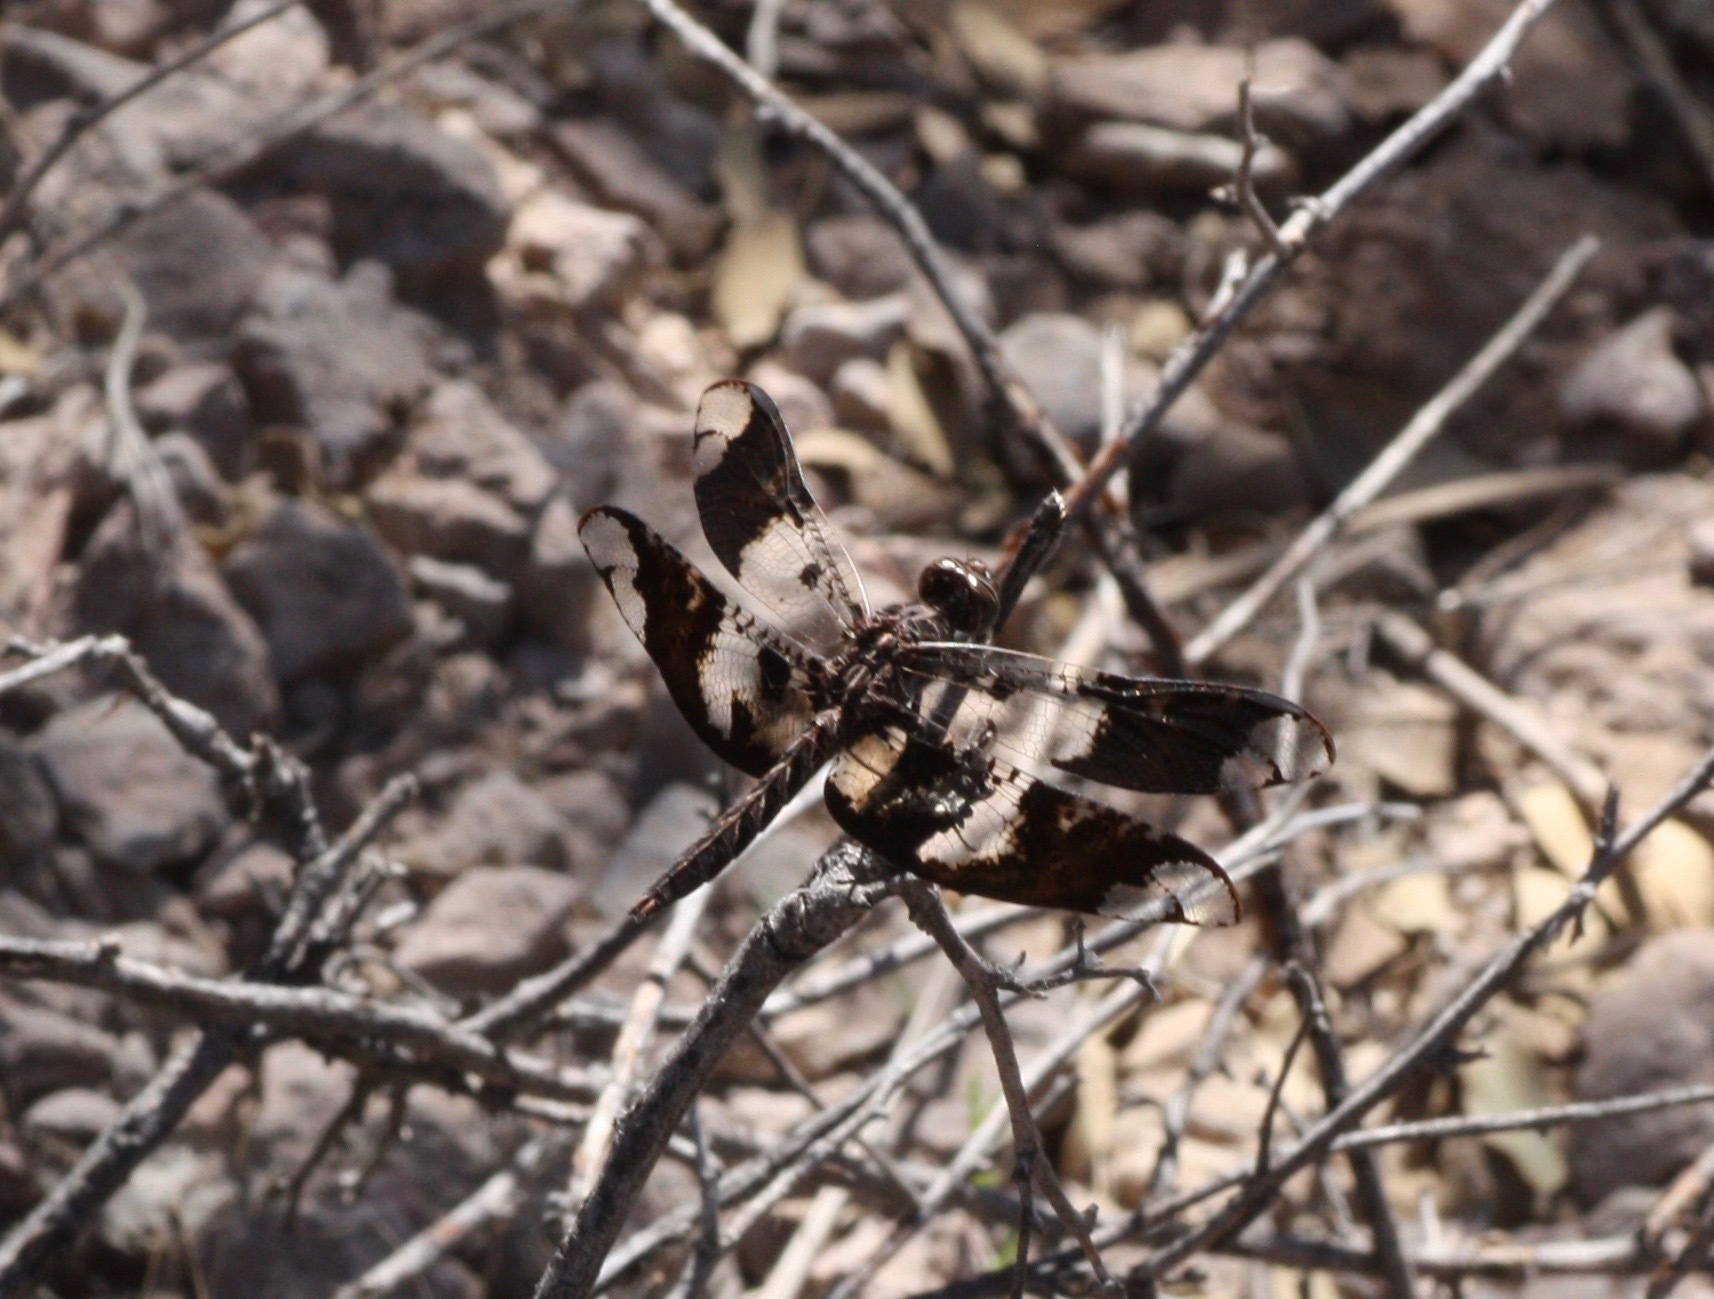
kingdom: Animalia
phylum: Arthropoda
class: Insecta
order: Odonata
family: Libellulidae
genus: Pseudoleon
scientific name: Pseudoleon superbus
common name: Filigree skimmer
